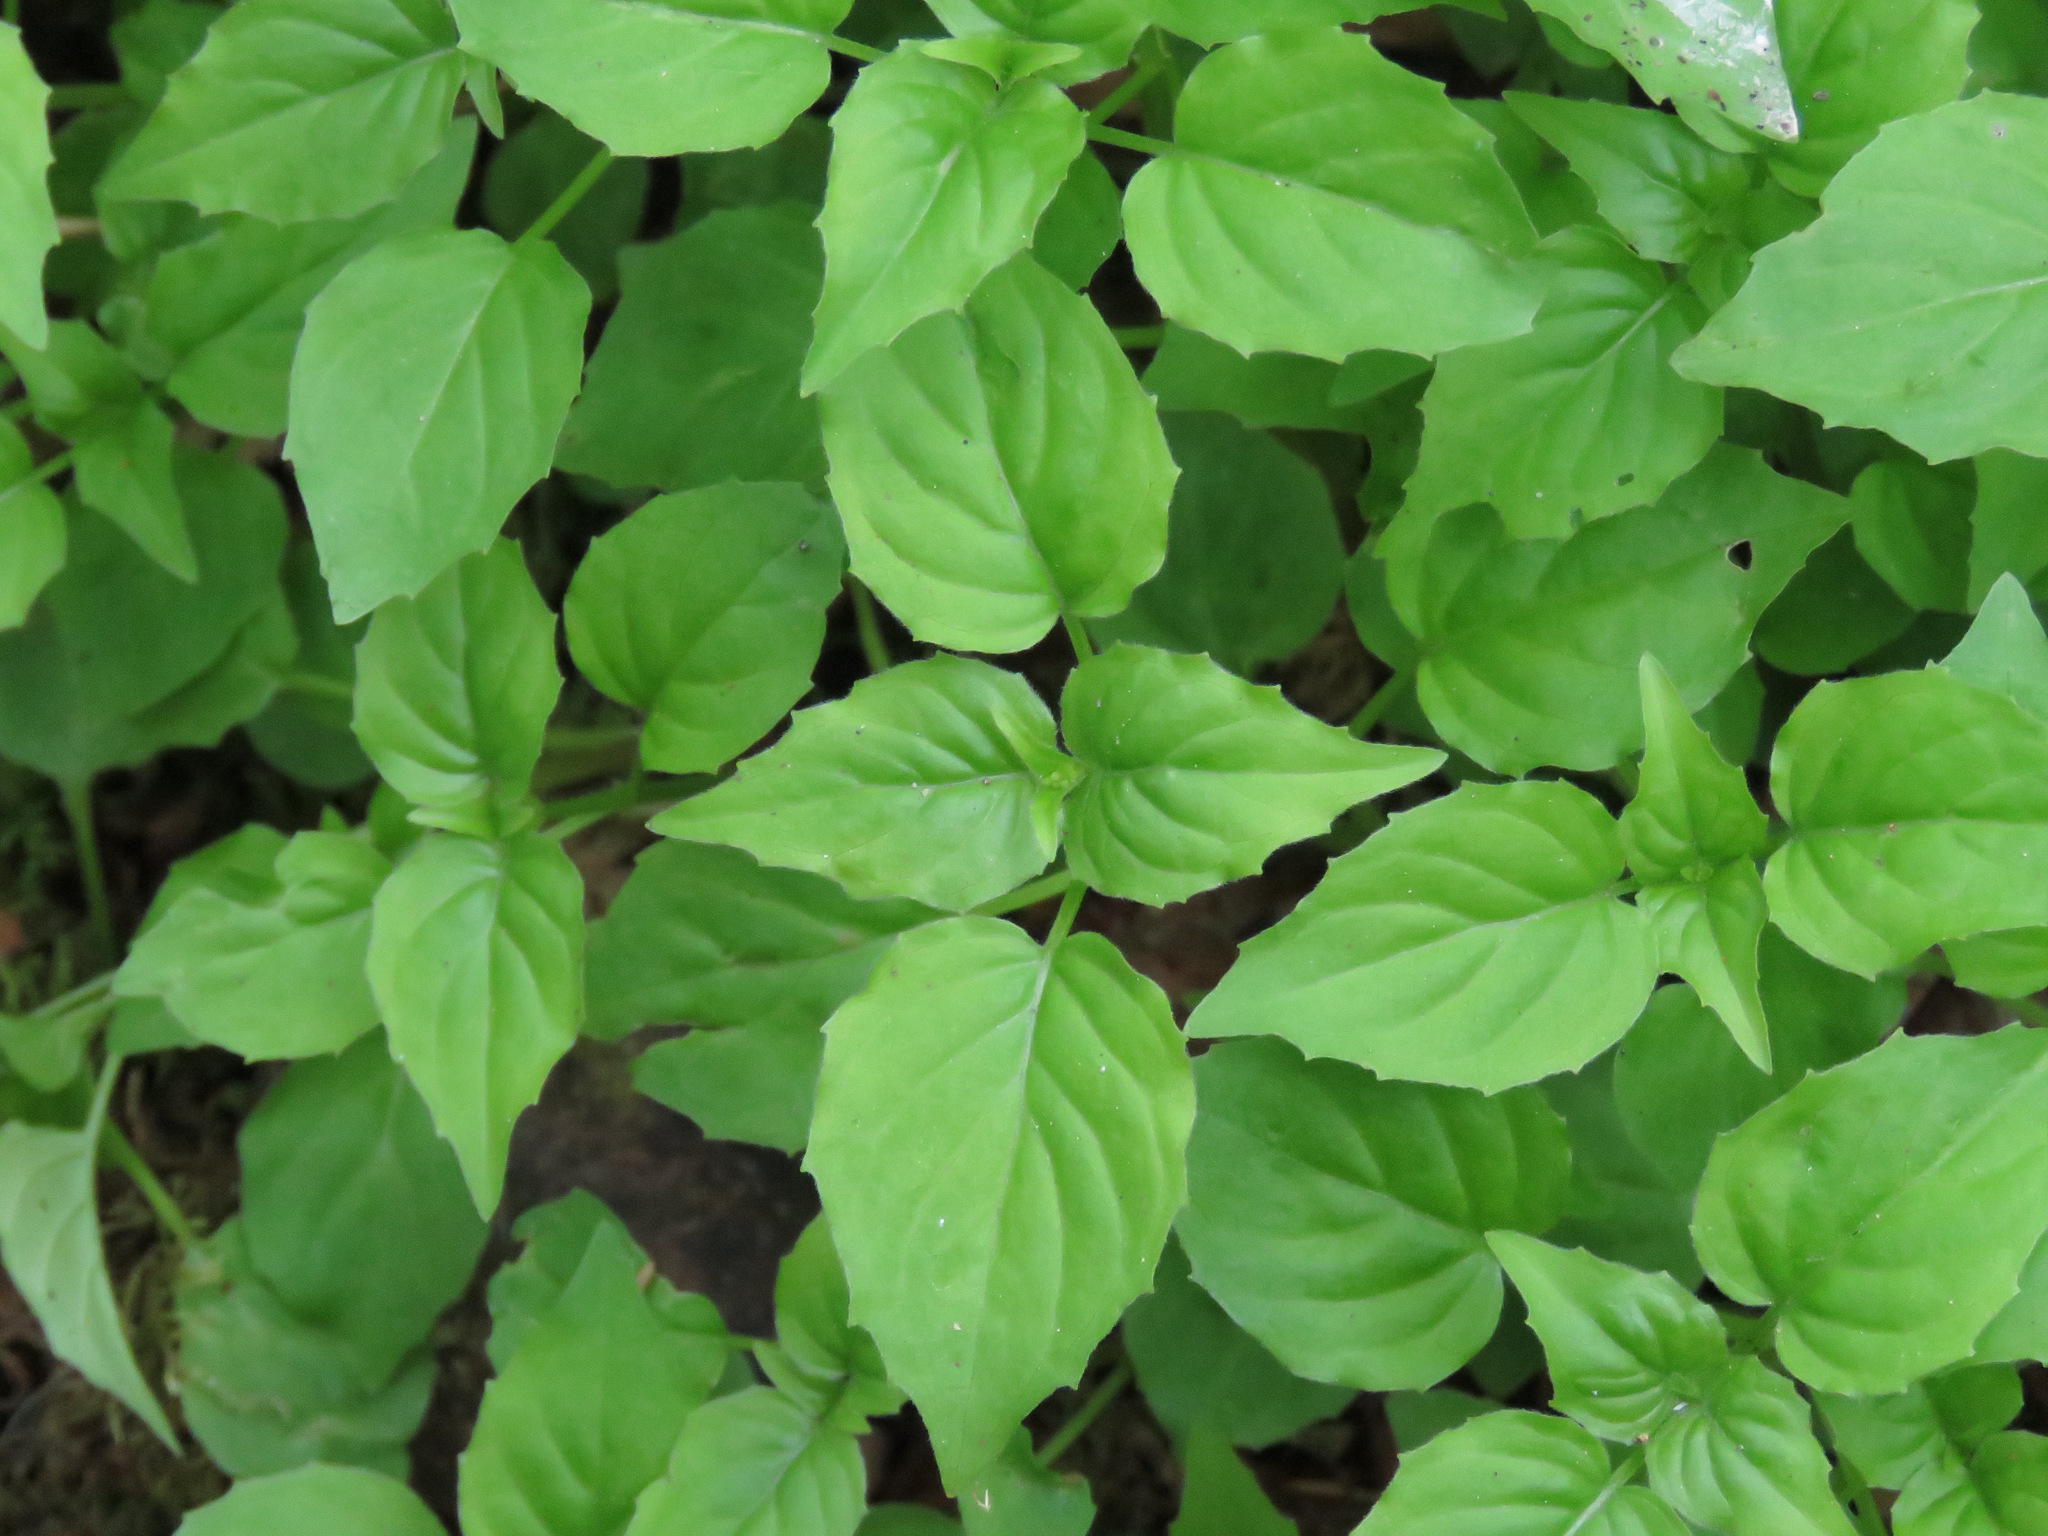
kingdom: Plantae
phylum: Tracheophyta
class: Magnoliopsida
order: Myrtales
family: Onagraceae
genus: Circaea
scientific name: Circaea alpina
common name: Alpine enchanter's-nightshade
